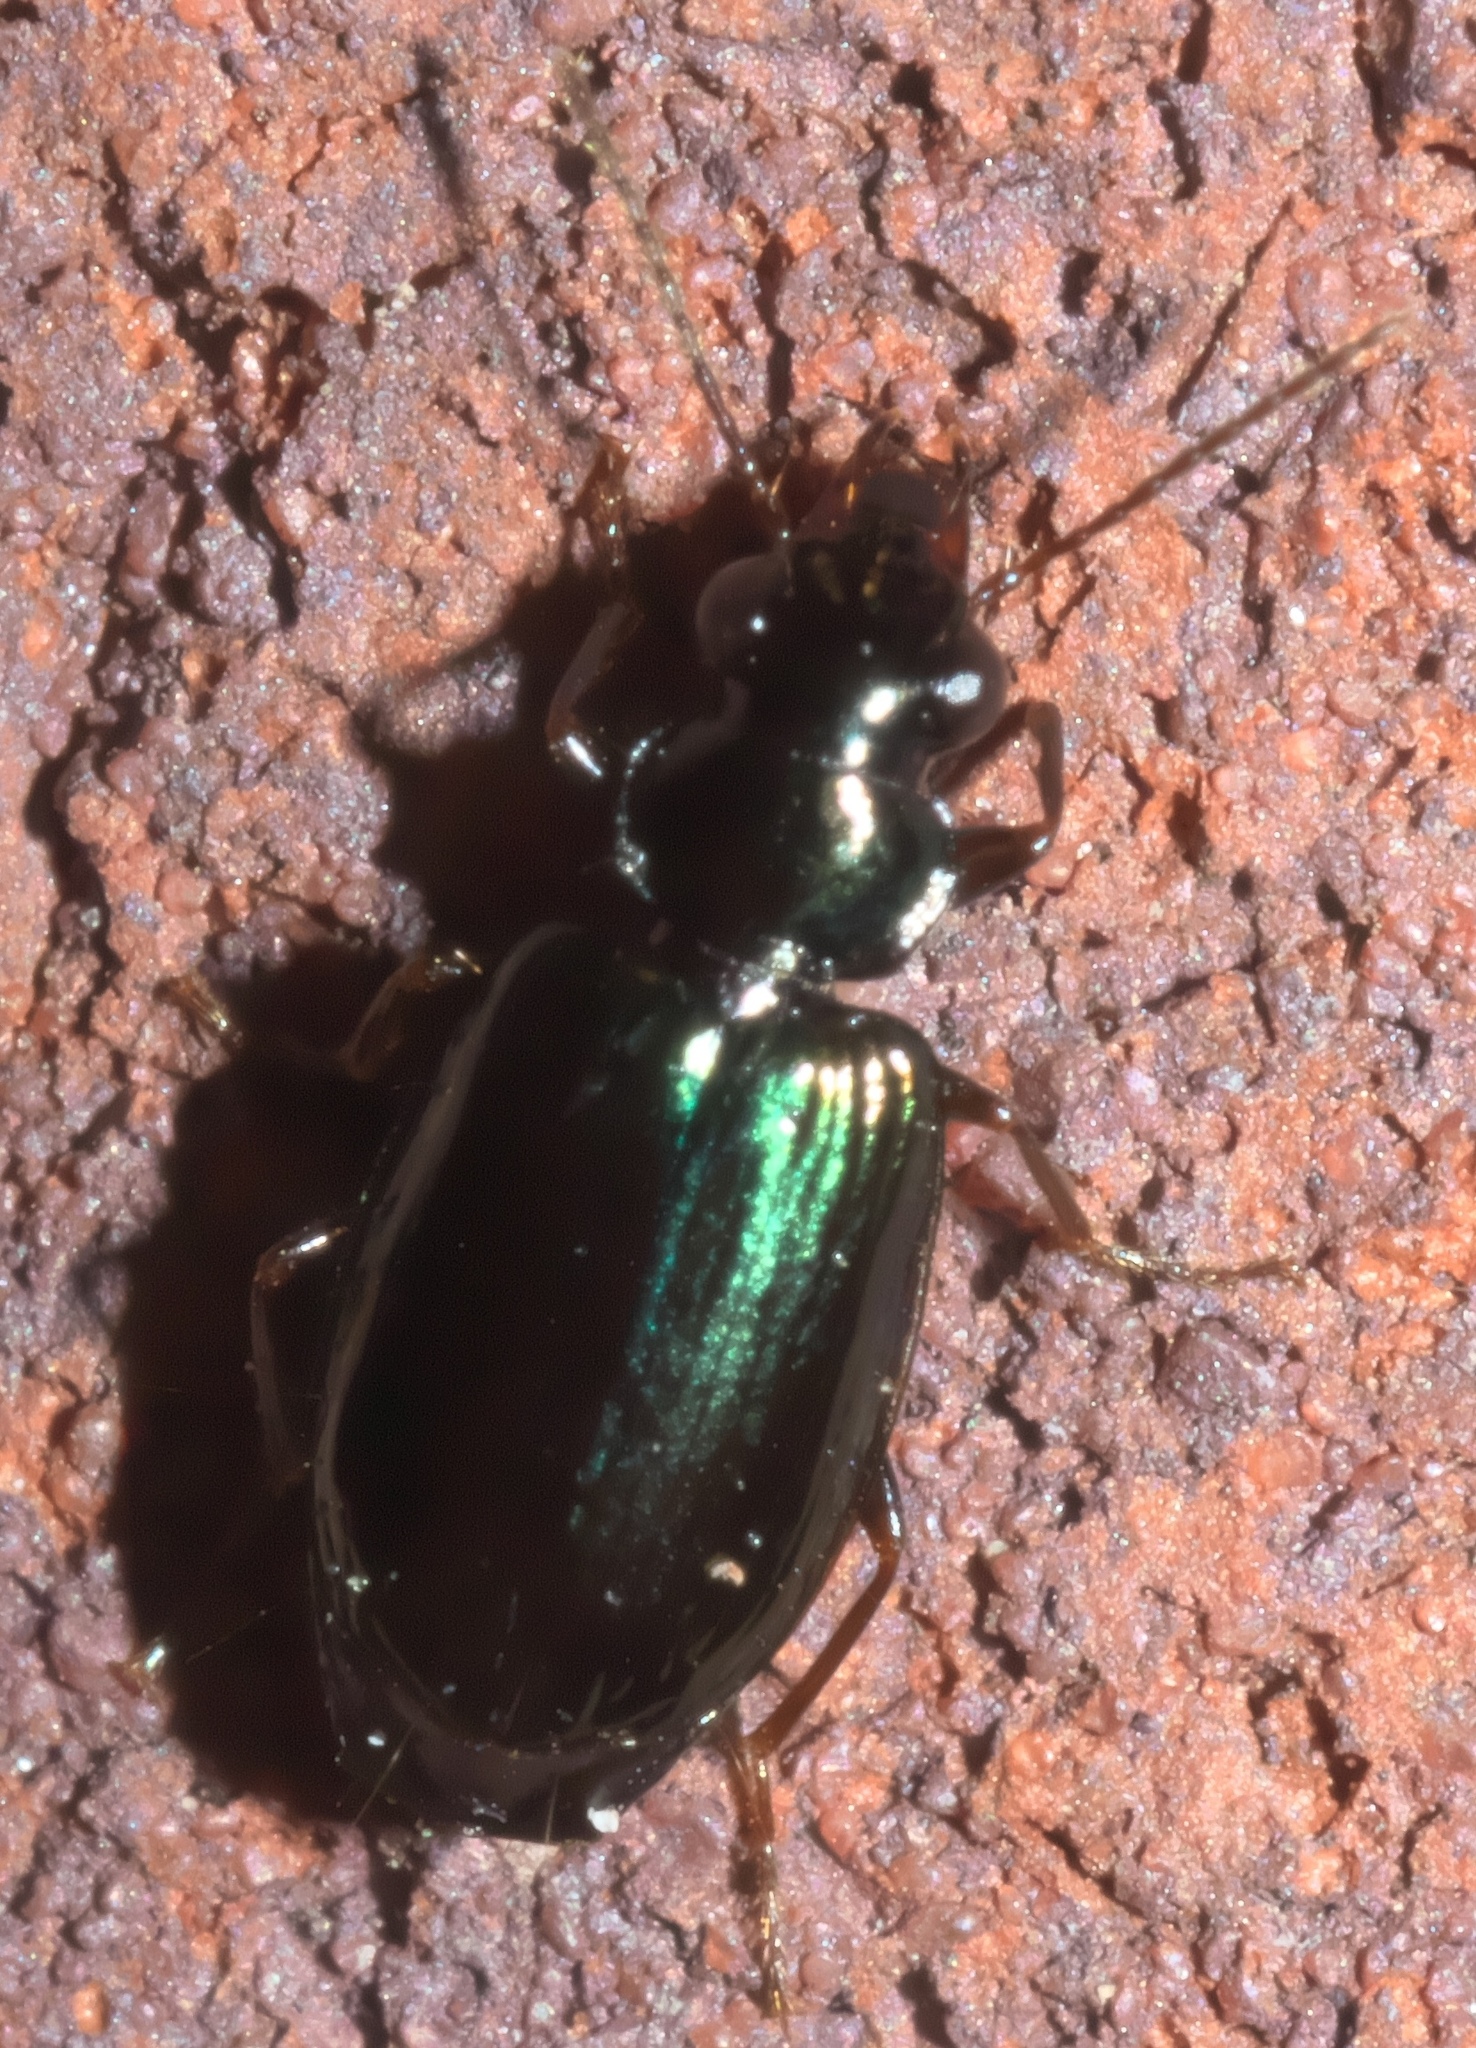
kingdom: Animalia
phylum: Arthropoda
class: Insecta
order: Coleoptera
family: Carabidae
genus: Coptodera
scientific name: Coptodera aerata
